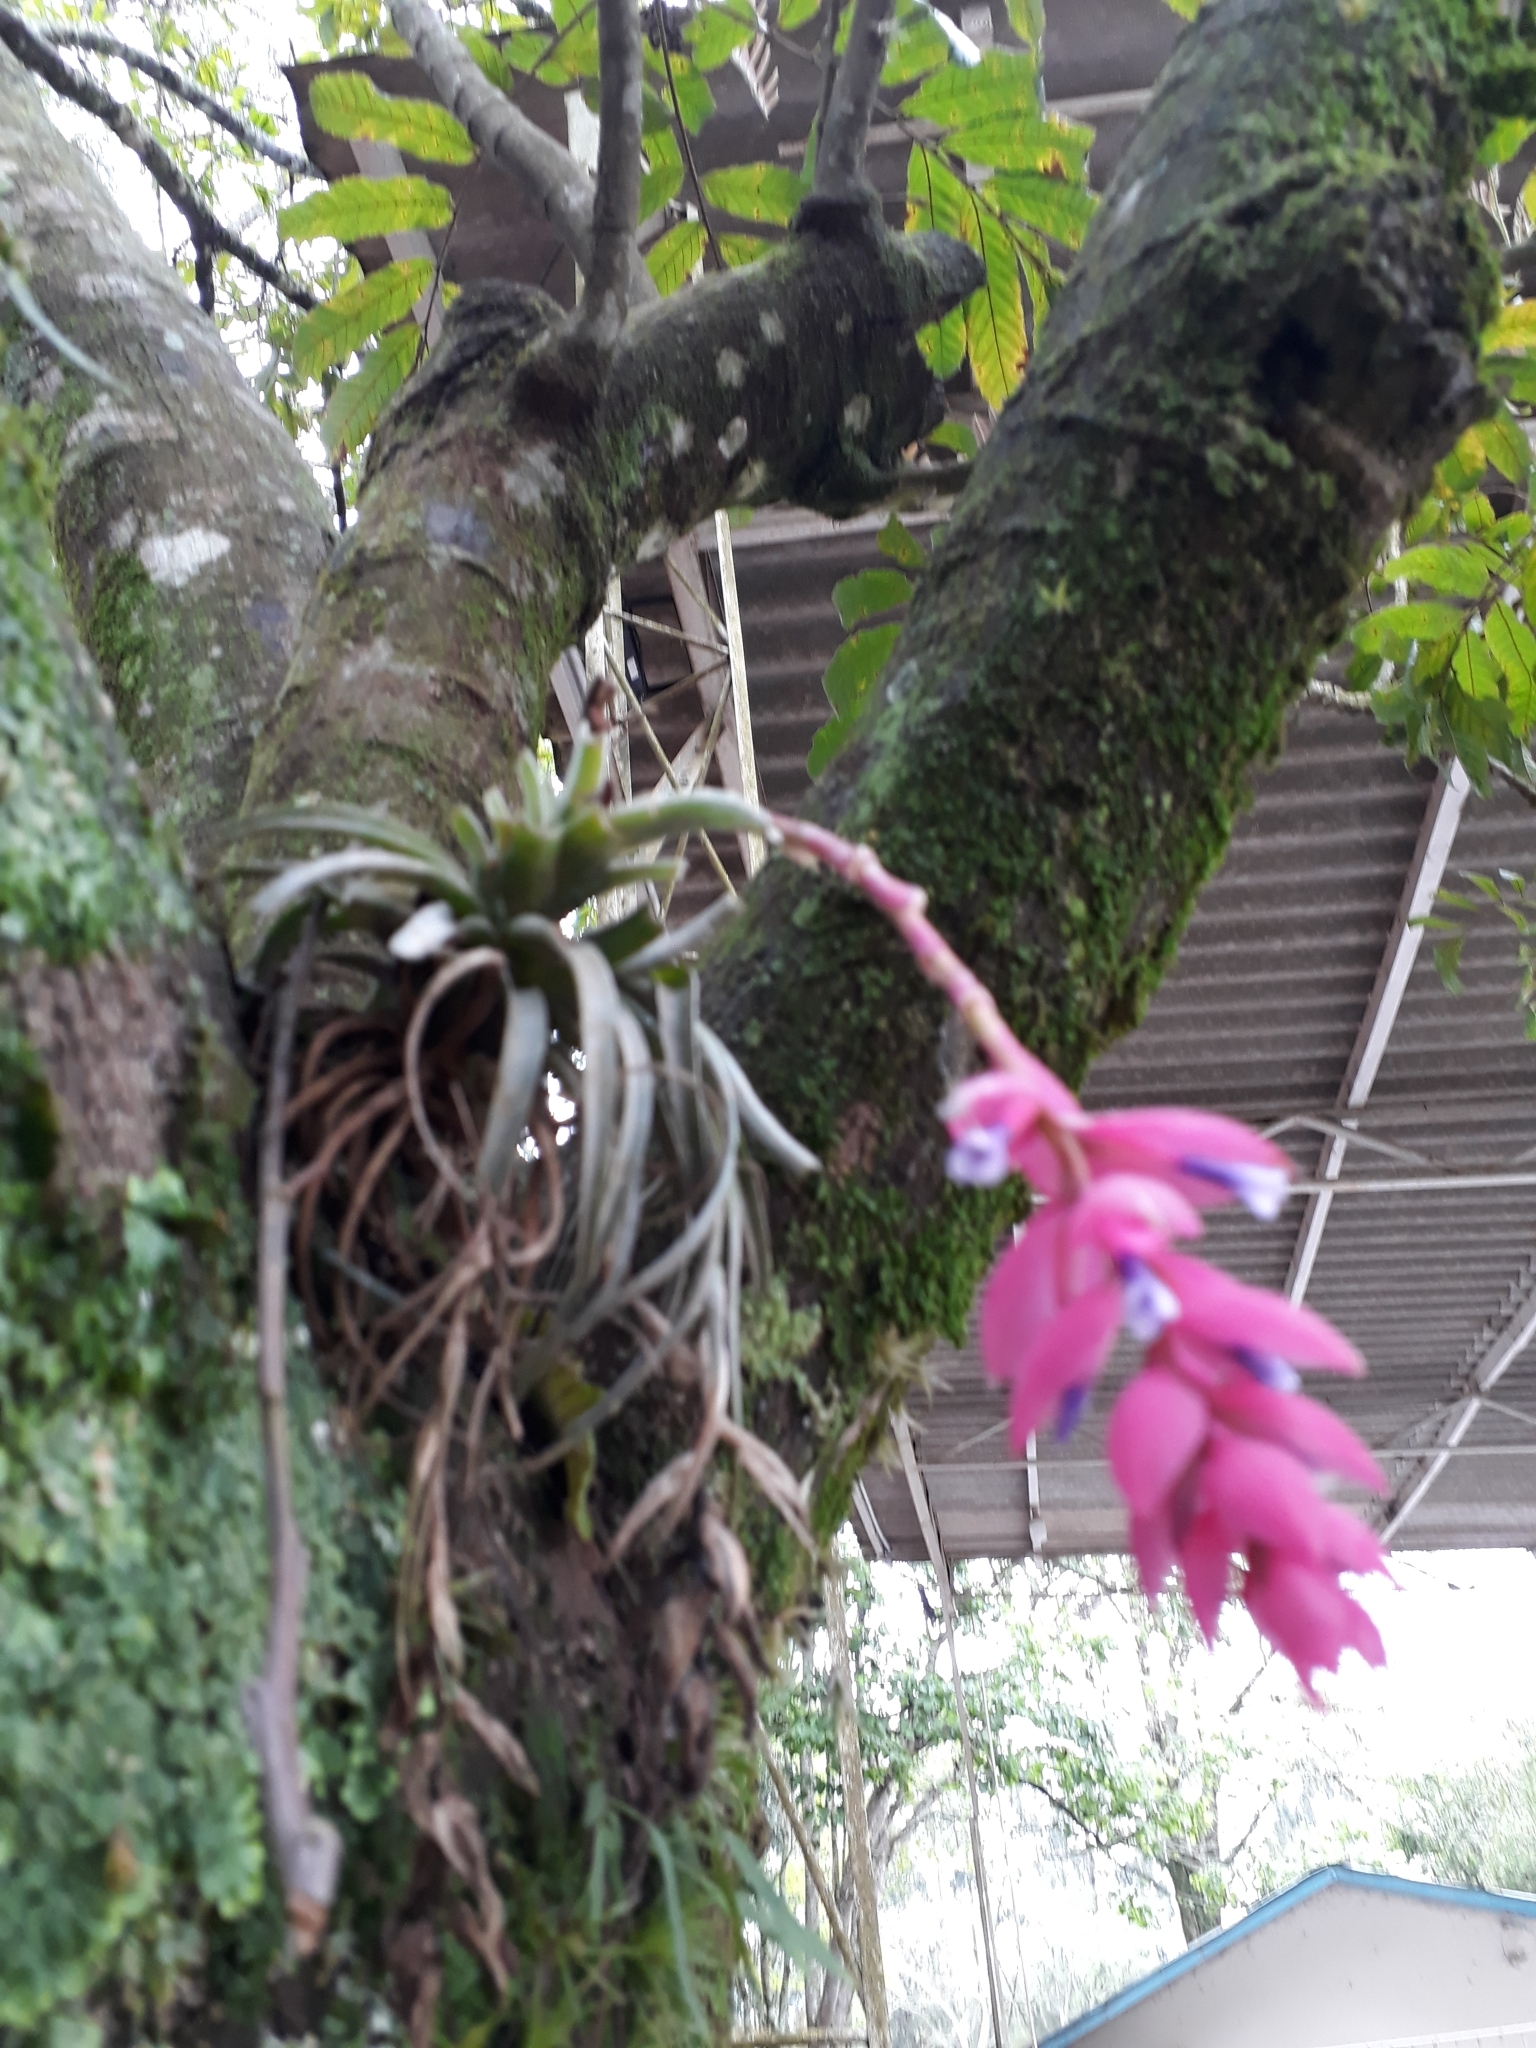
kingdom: Plantae
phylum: Tracheophyta
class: Liliopsida
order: Poales
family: Bromeliaceae
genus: Tillandsia
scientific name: Tillandsia stricta
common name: Airplant
